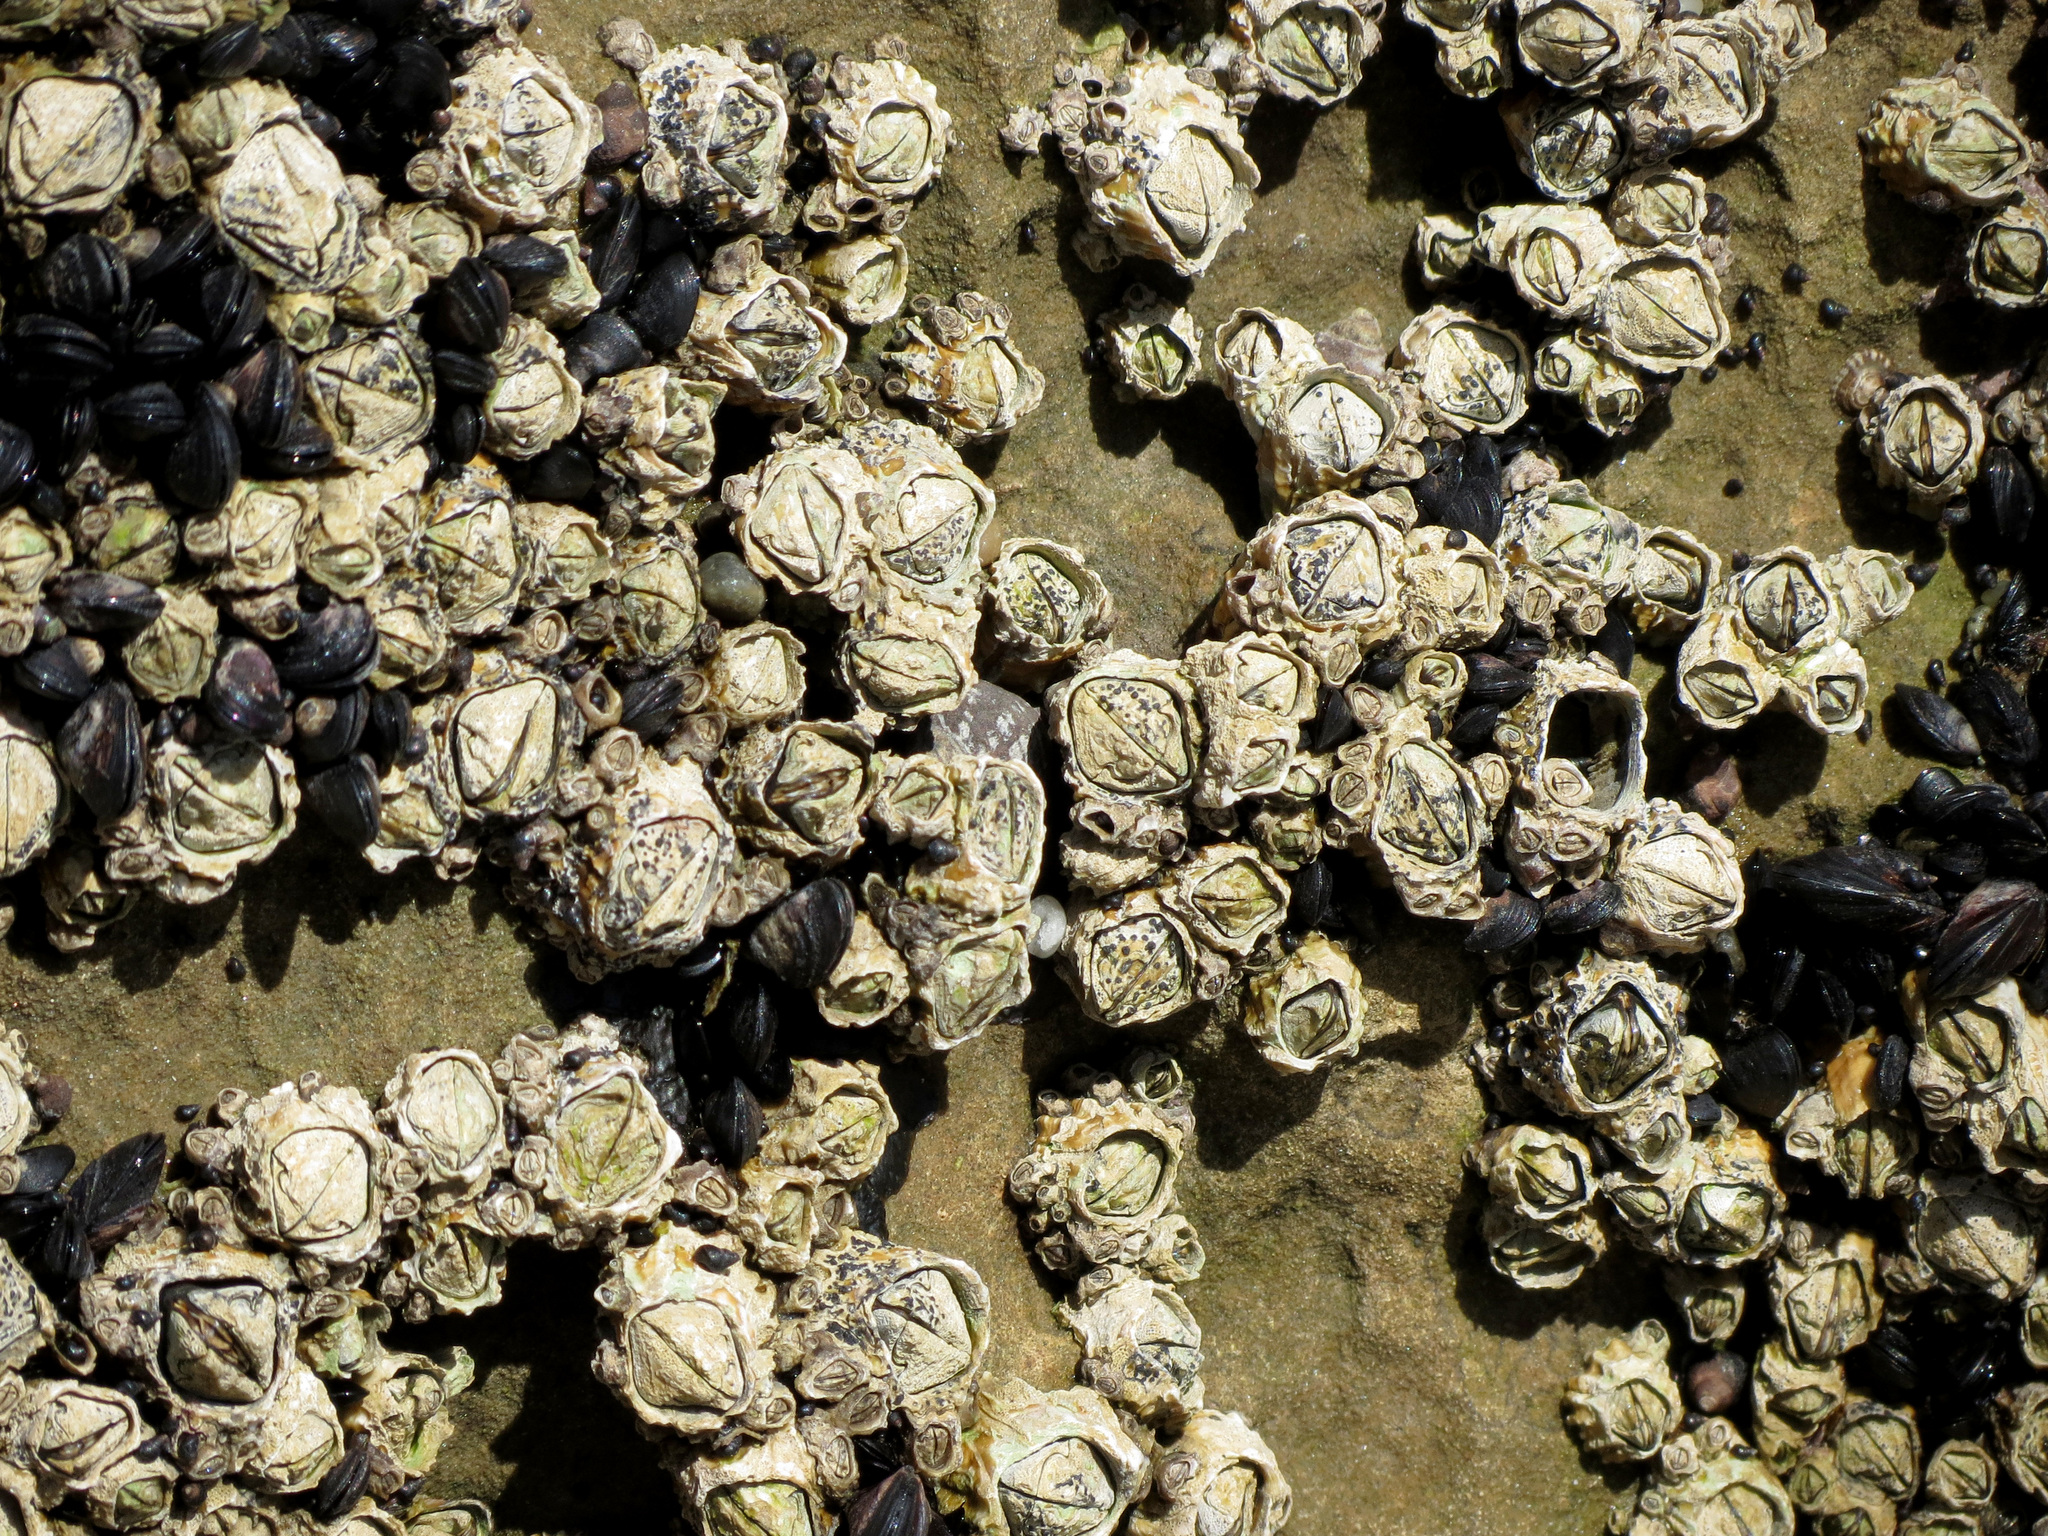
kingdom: Animalia
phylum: Arthropoda
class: Maxillopoda
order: Sessilia
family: Tetraclitidae
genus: Epopella
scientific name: Epopella plicata
